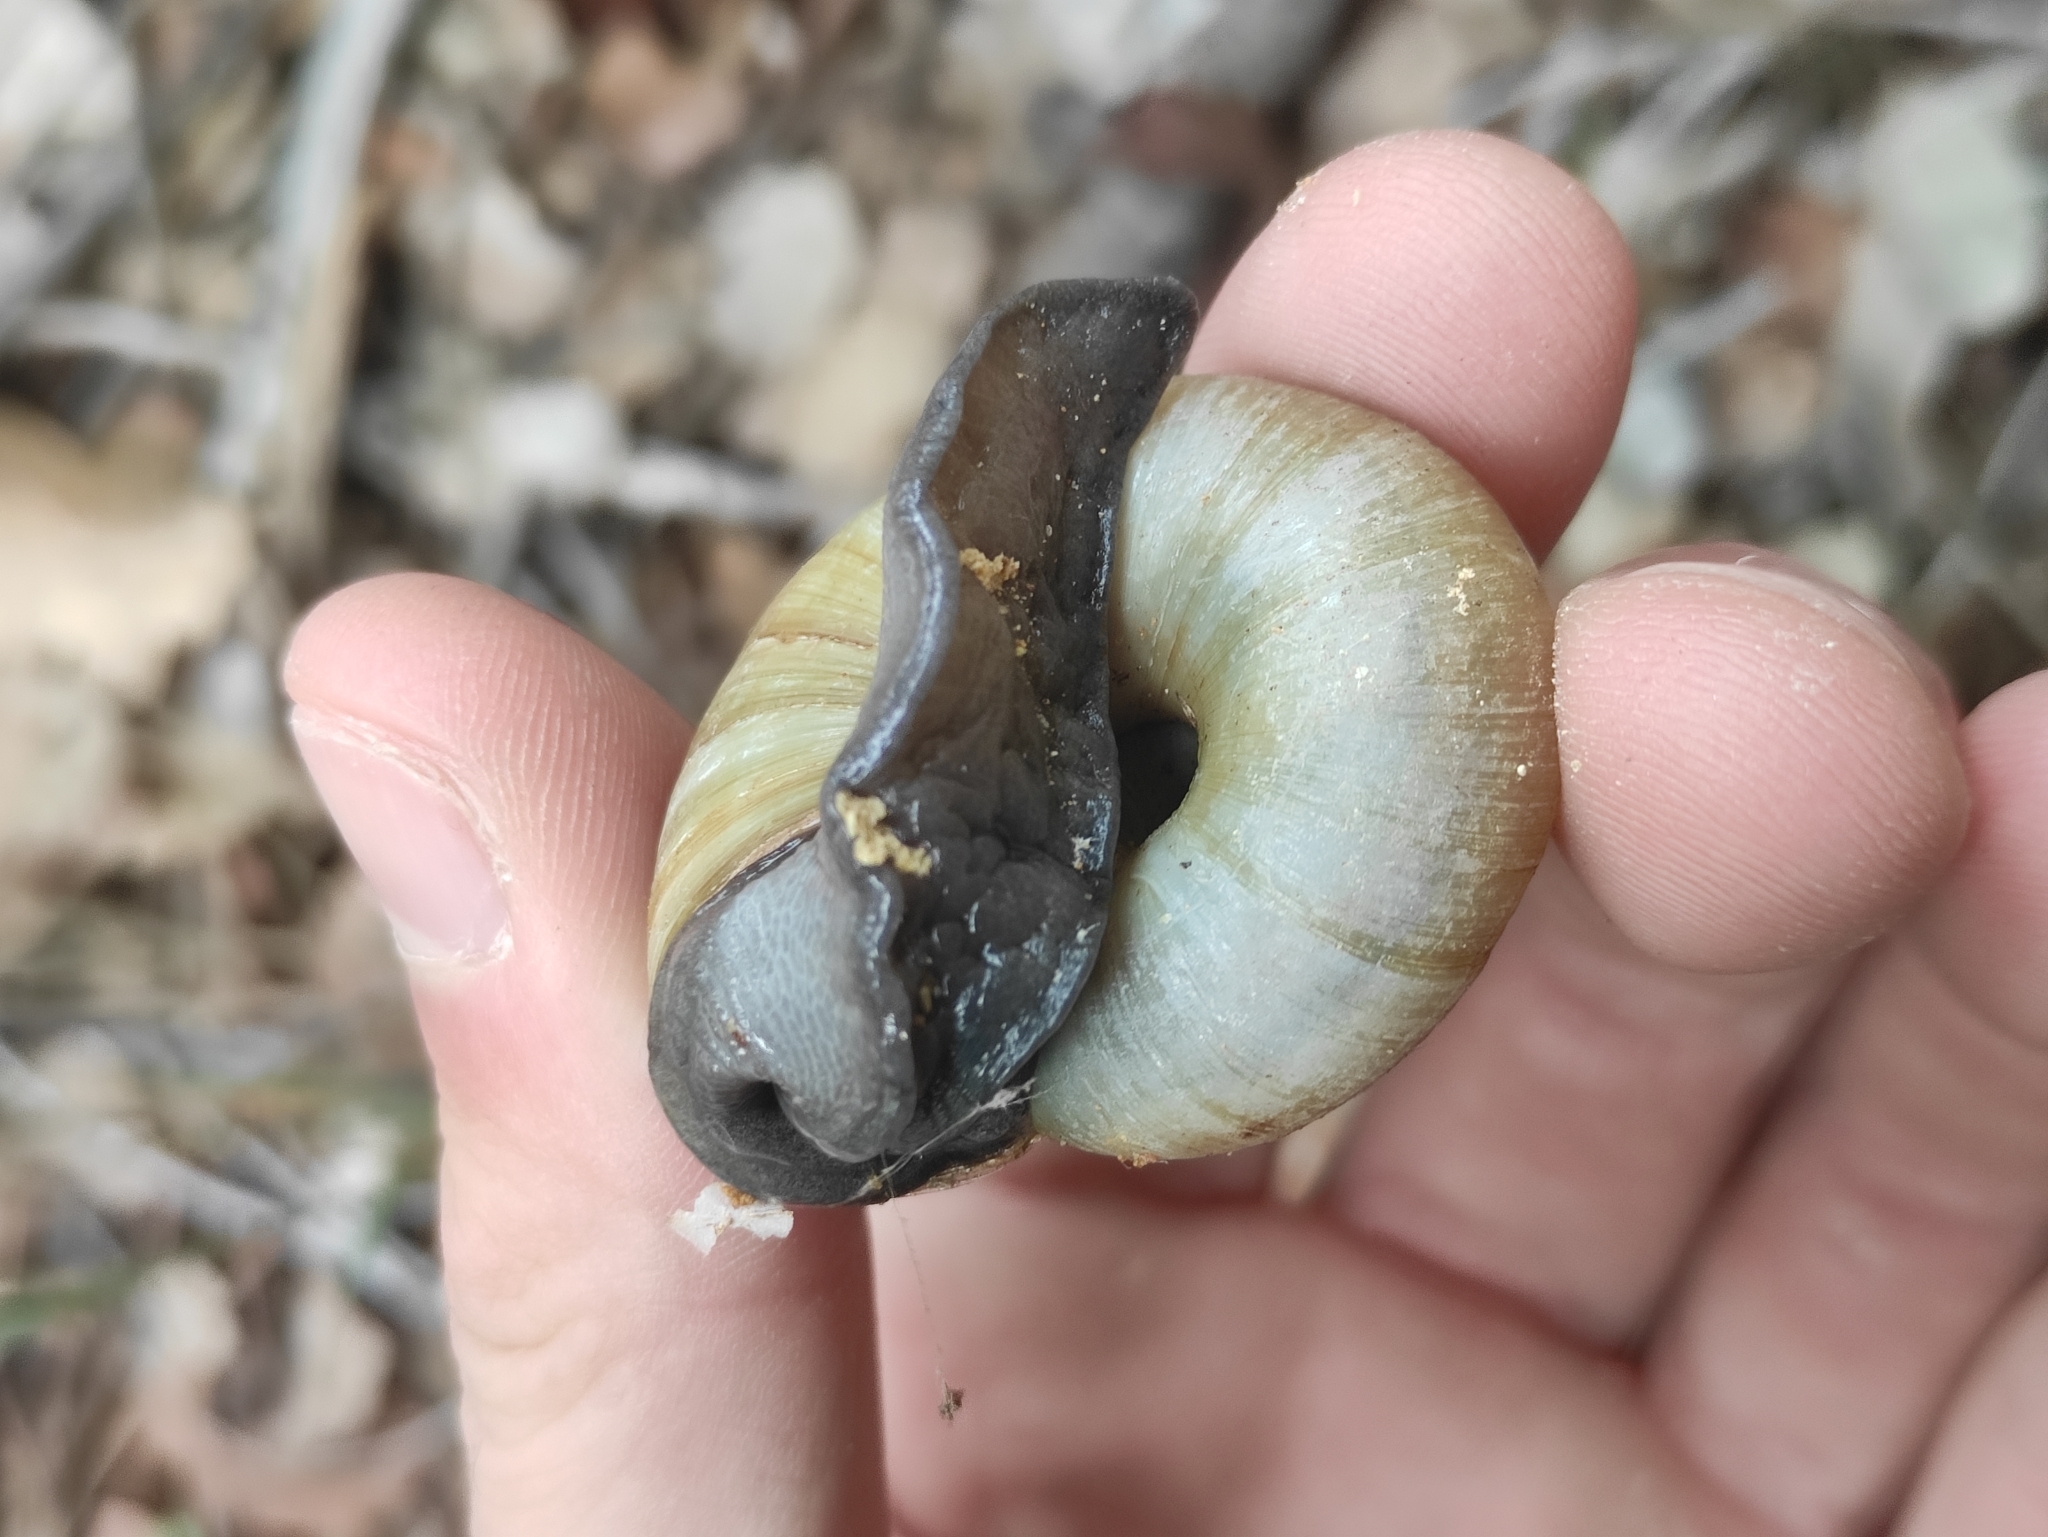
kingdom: Animalia
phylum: Mollusca
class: Gastropoda
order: Stylommatophora
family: Zonitidae
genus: Zonites
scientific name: Zonites algirus
